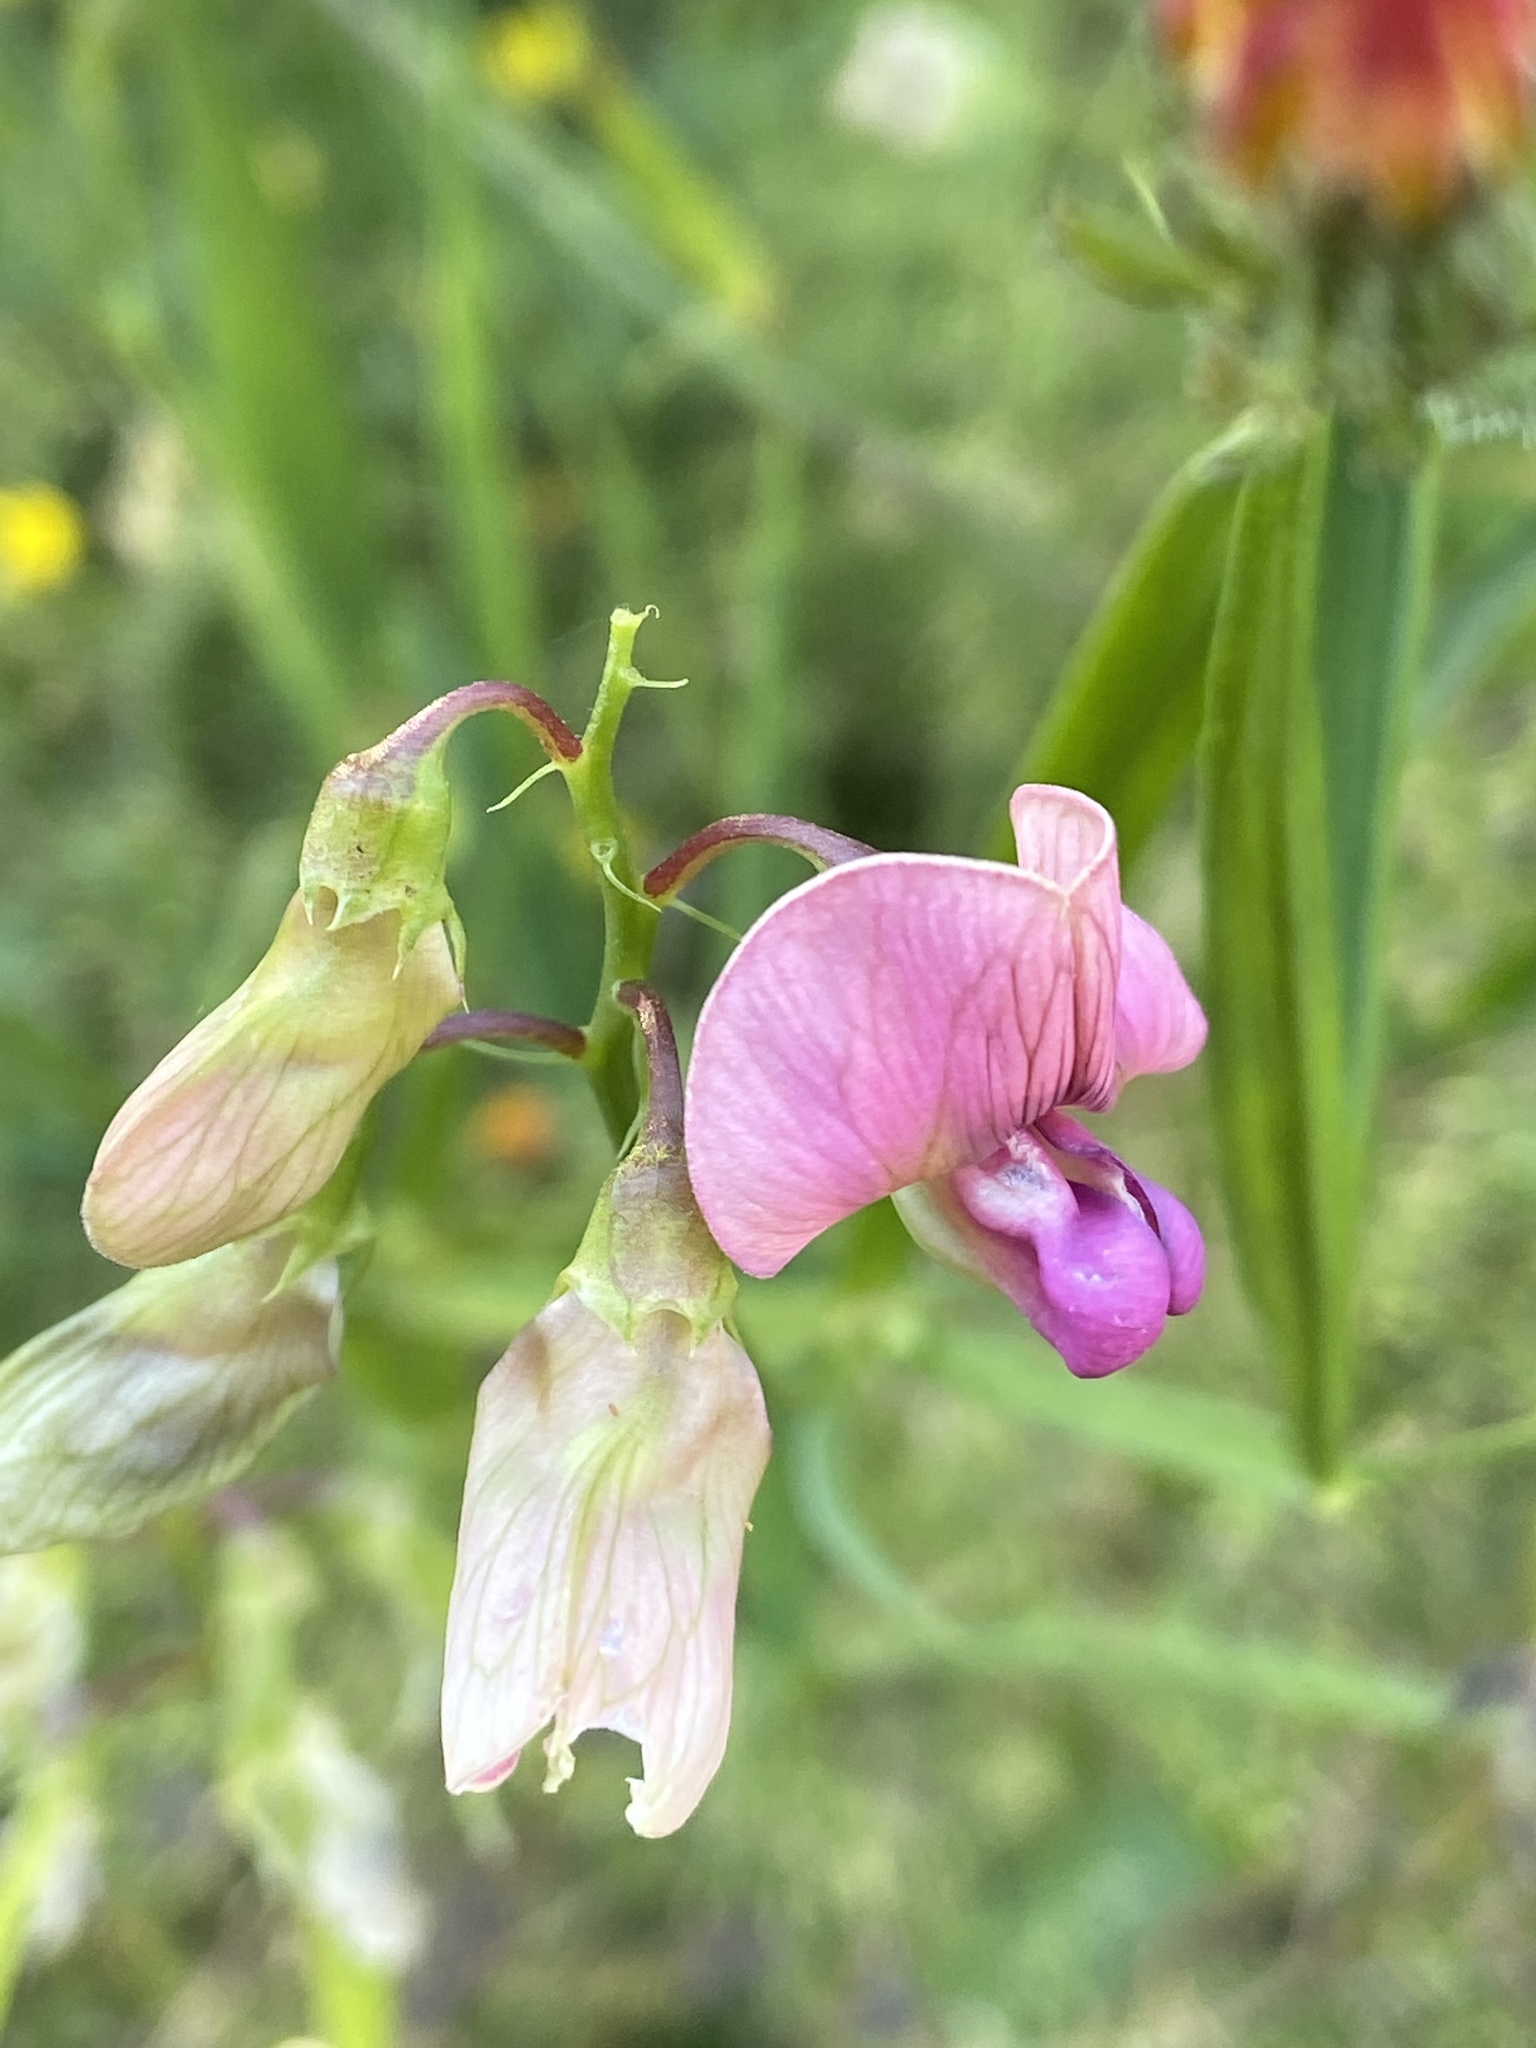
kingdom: Plantae
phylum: Tracheophyta
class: Magnoliopsida
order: Fabales
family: Fabaceae
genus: Lathyrus
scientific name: Lathyrus sylvestris
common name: Flat pea
